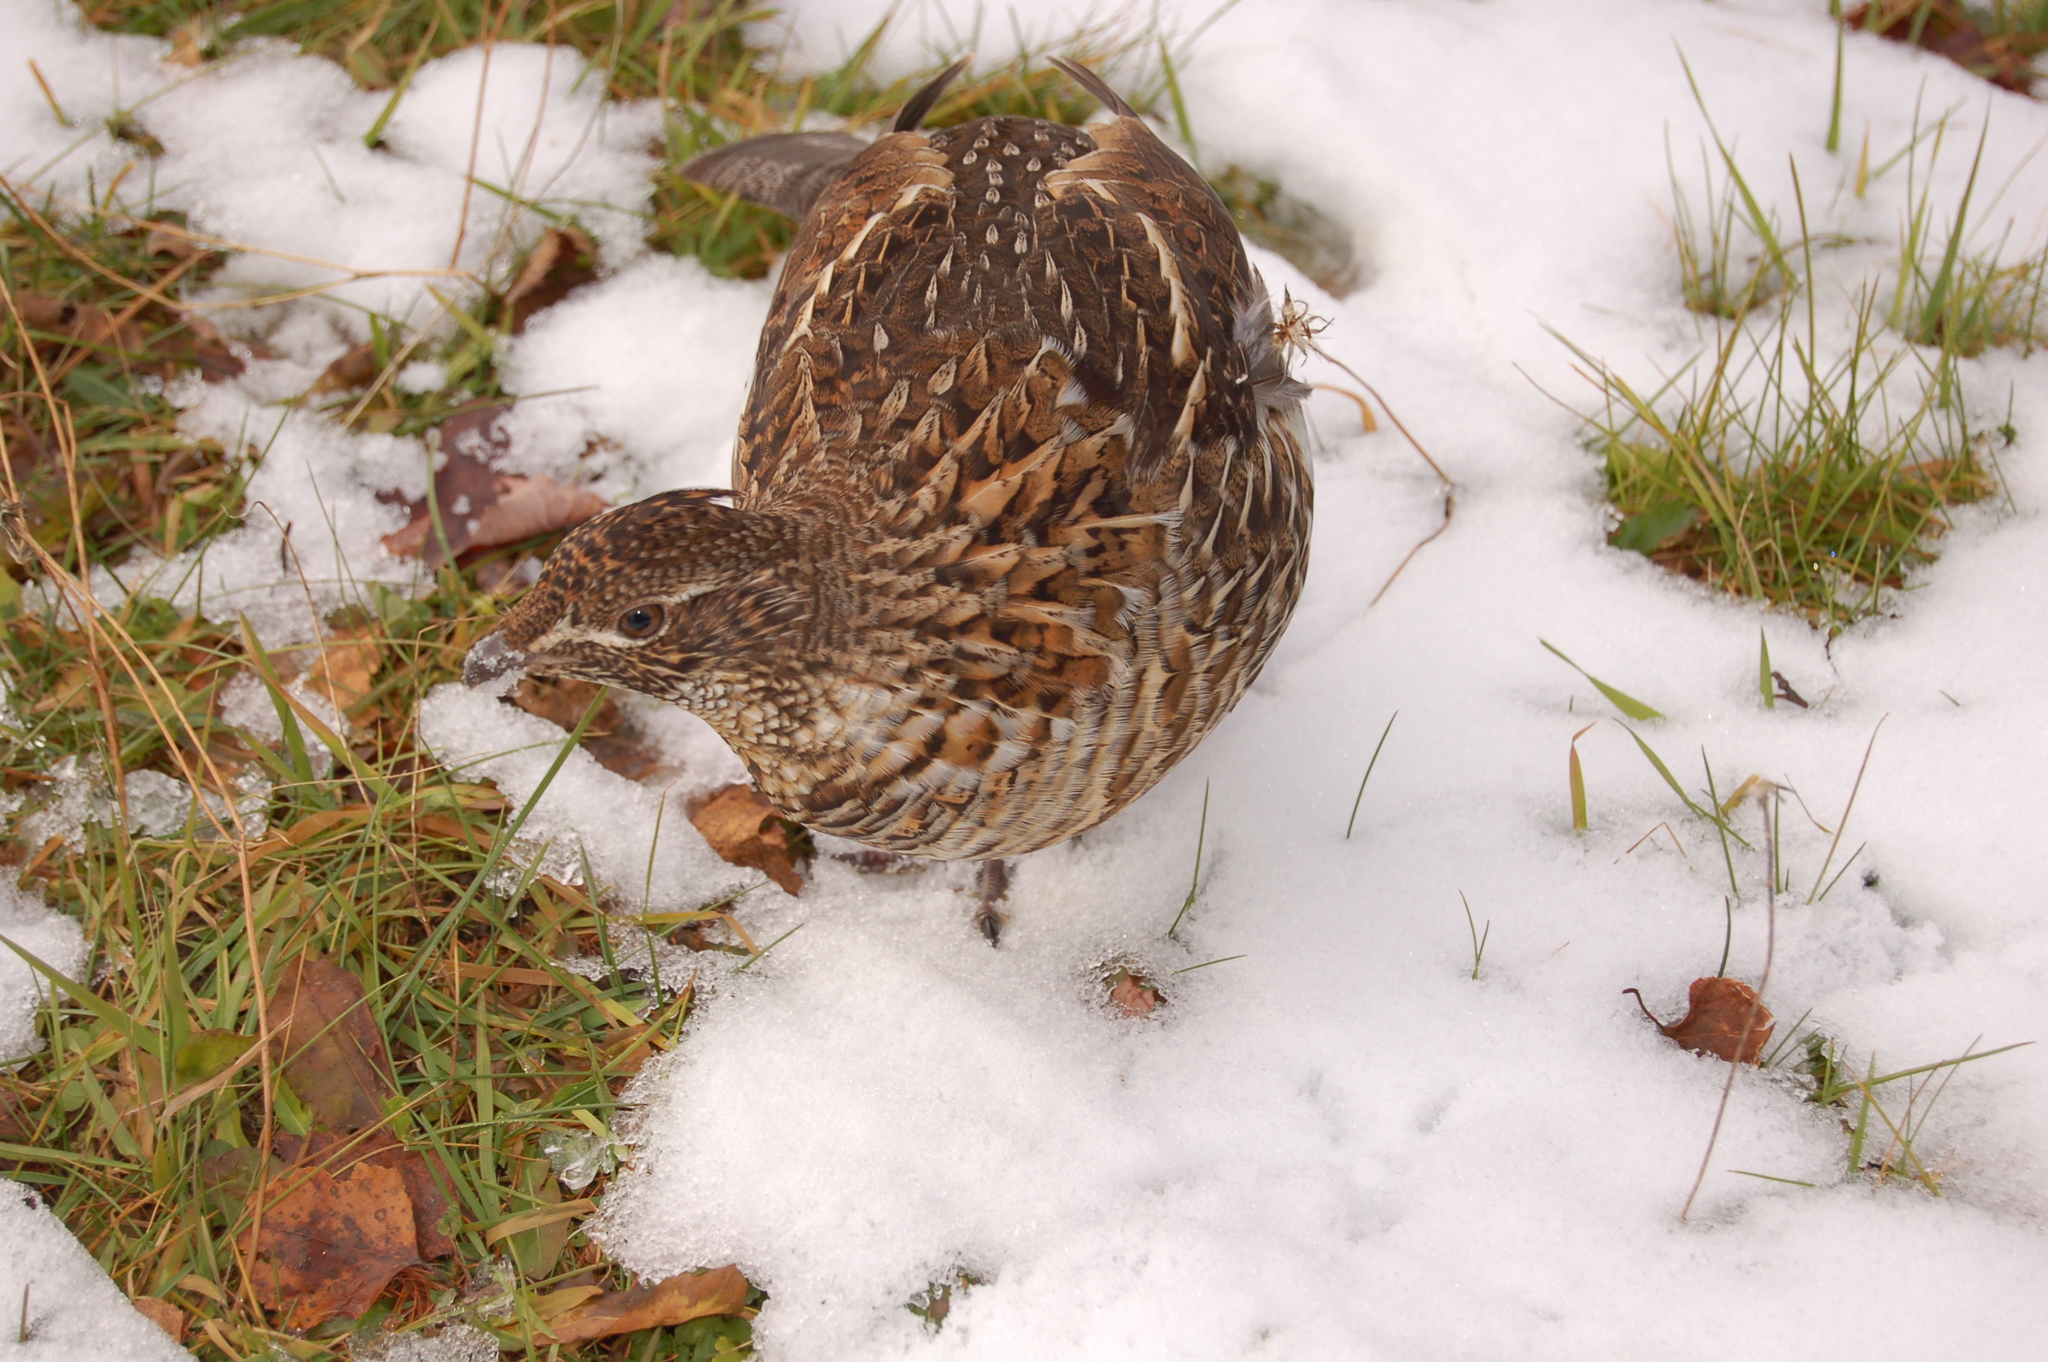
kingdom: Animalia
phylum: Chordata
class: Aves
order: Galliformes
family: Phasianidae
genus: Bonasa
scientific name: Bonasa umbellus
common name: Ruffed grouse
